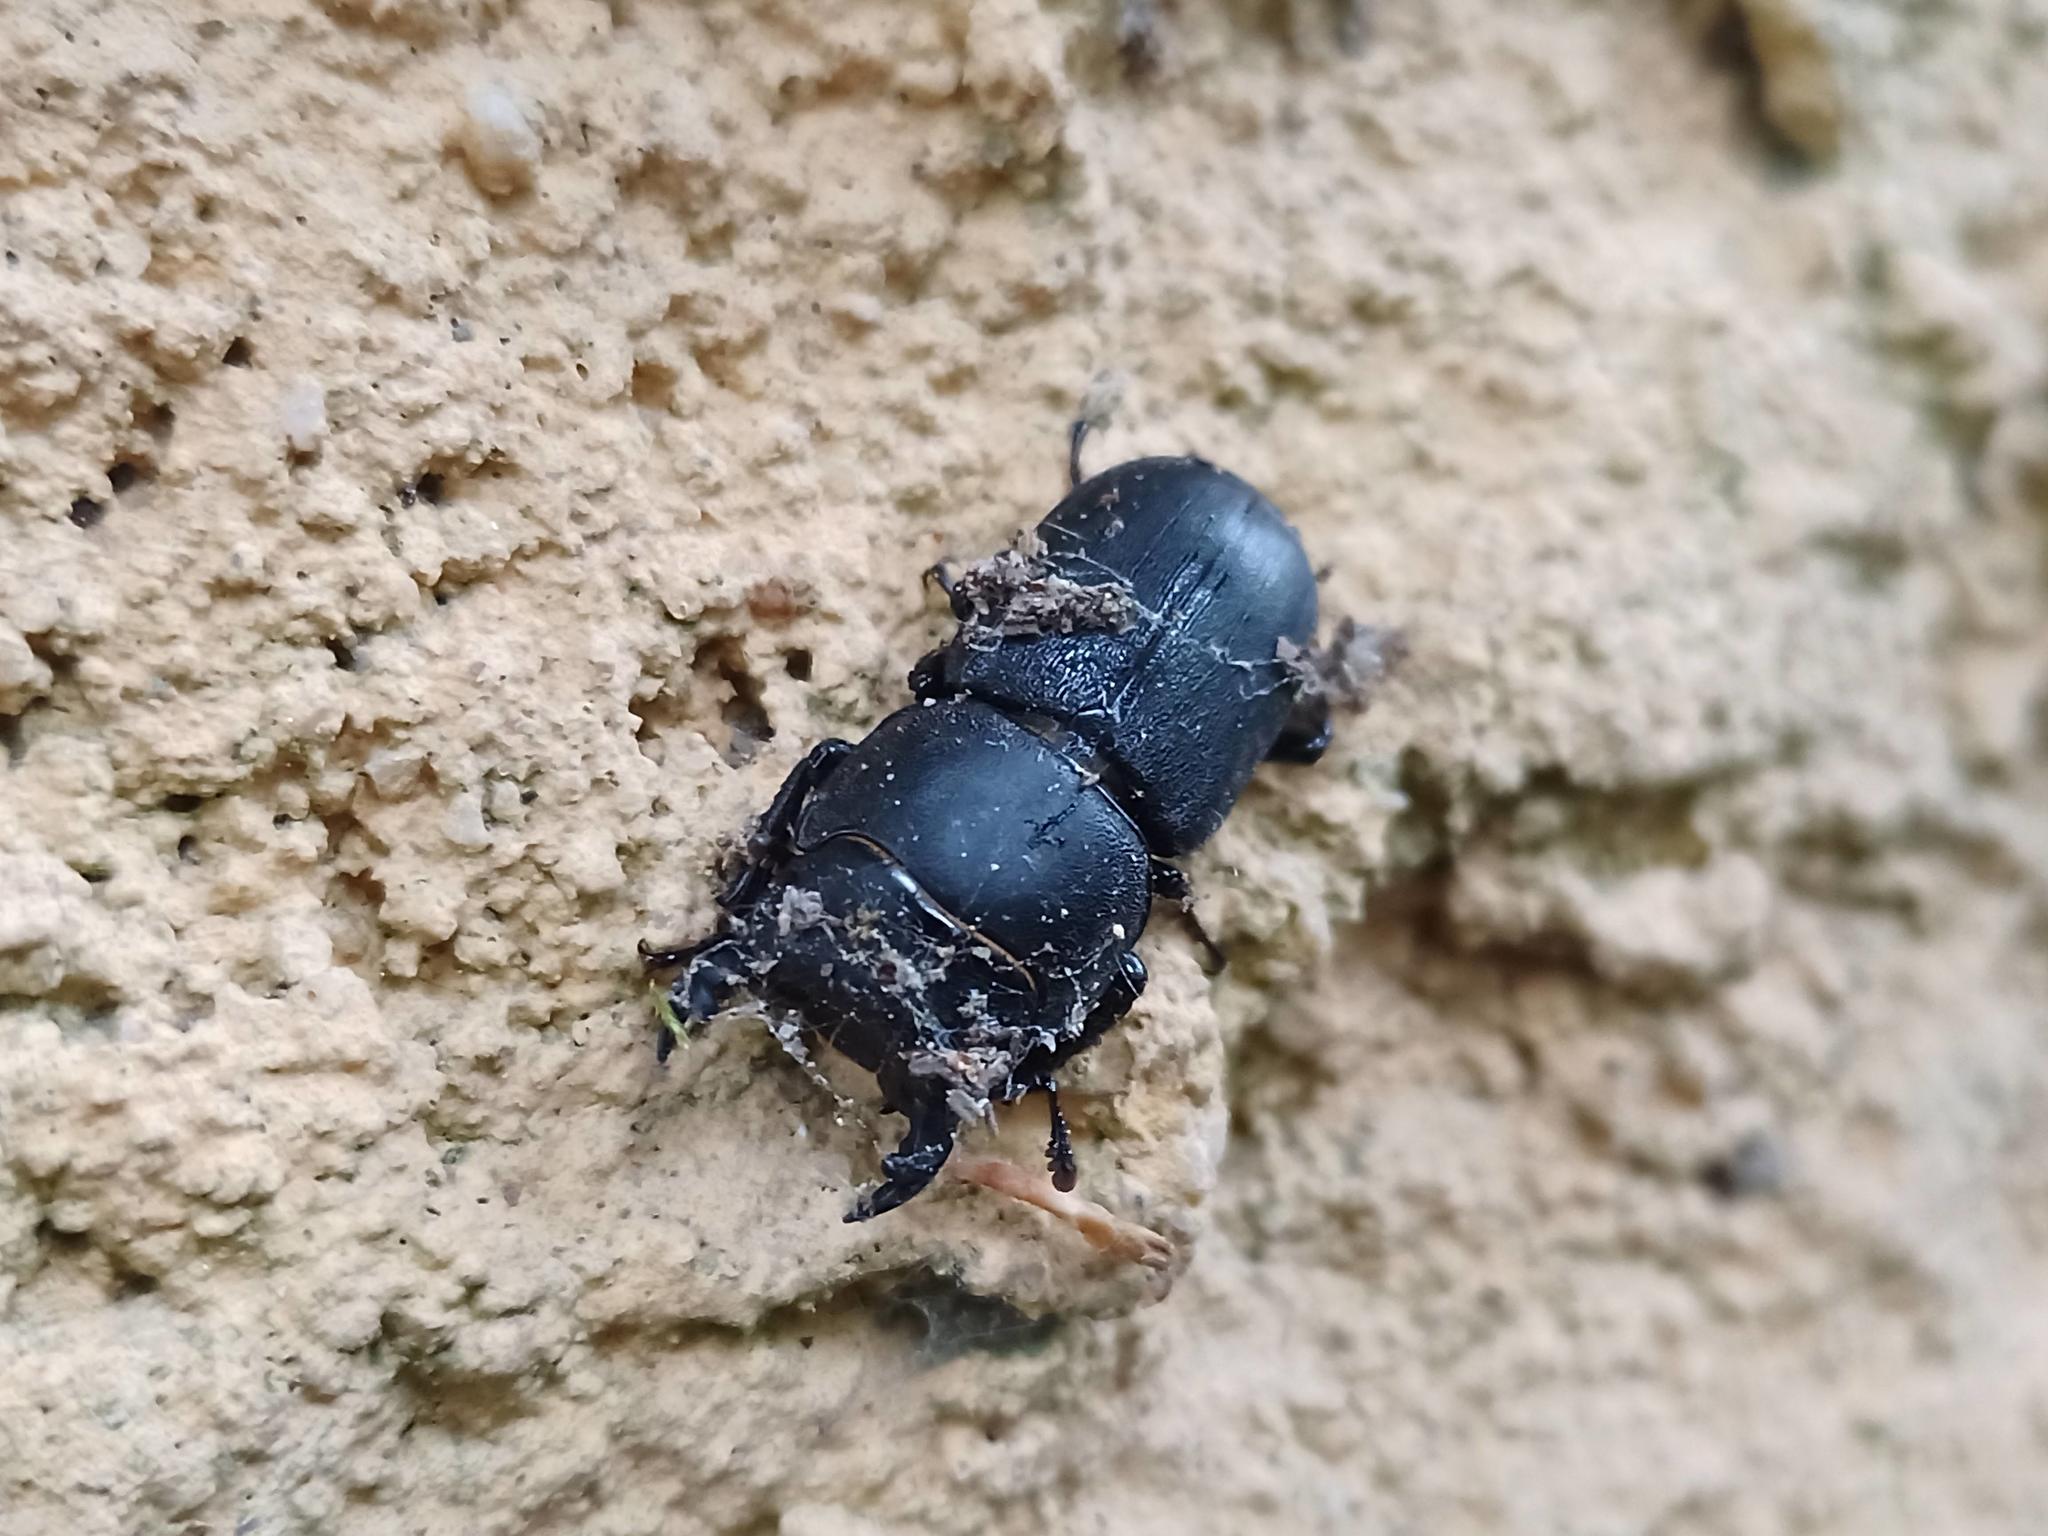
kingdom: Animalia
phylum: Arthropoda
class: Insecta
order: Coleoptera
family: Lucanidae
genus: Dorcus
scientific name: Dorcus parallelipipedus
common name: Lesser stag beetle
